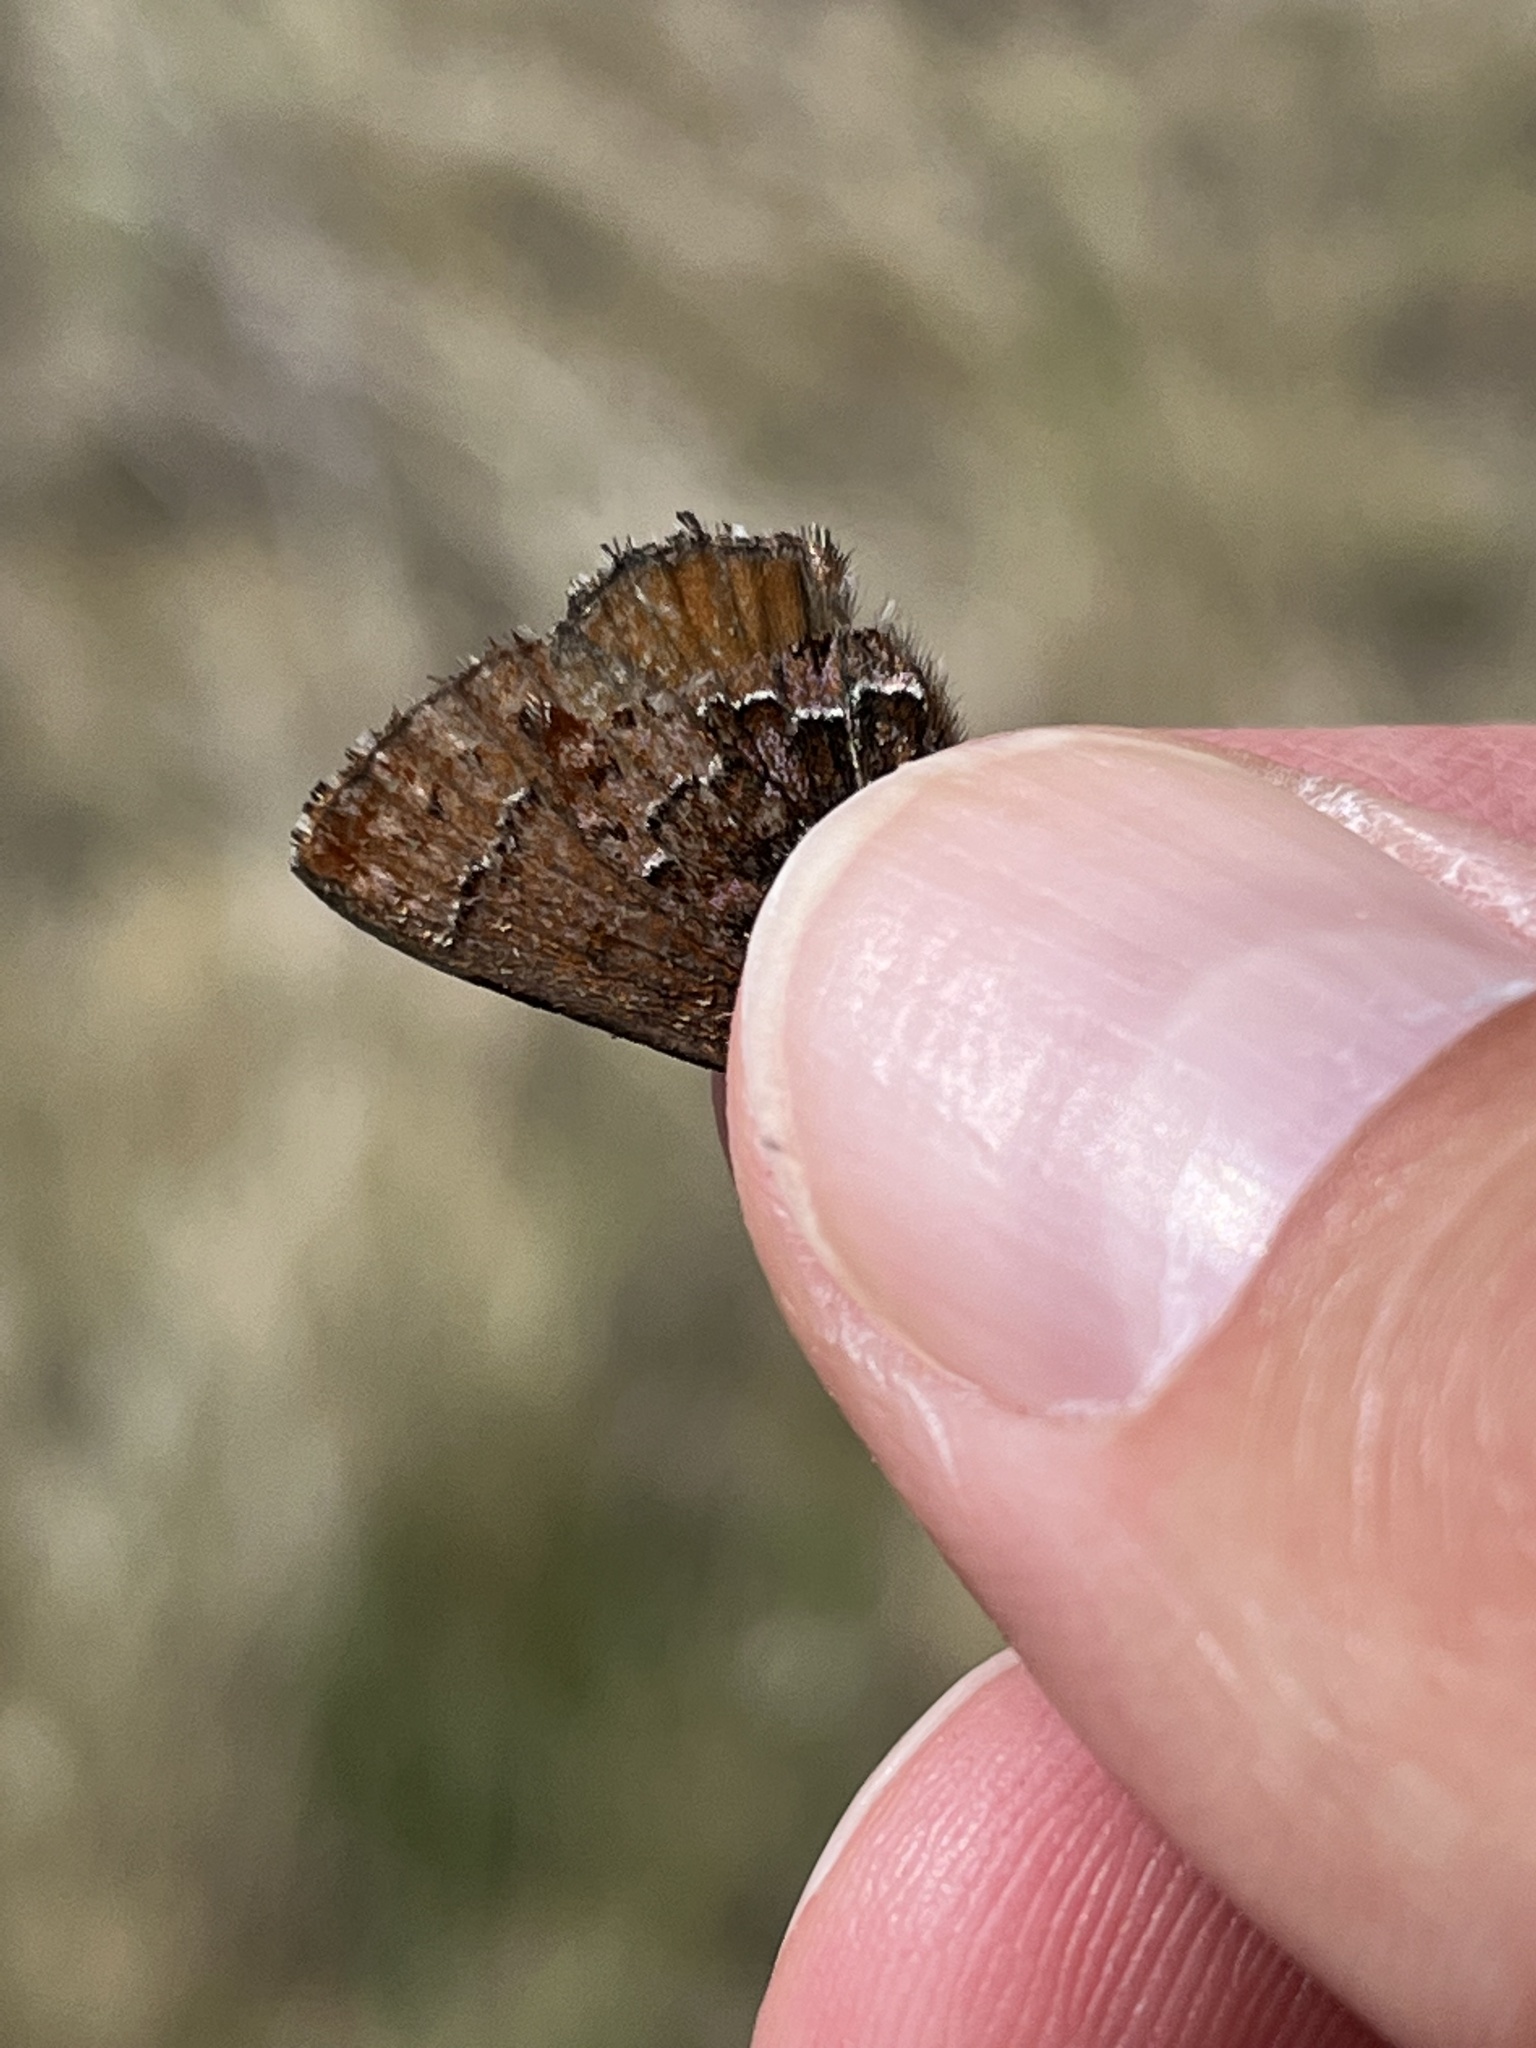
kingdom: Animalia
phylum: Arthropoda
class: Insecta
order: Lepidoptera
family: Lycaenidae
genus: Incisalia
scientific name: Incisalia eryphon
